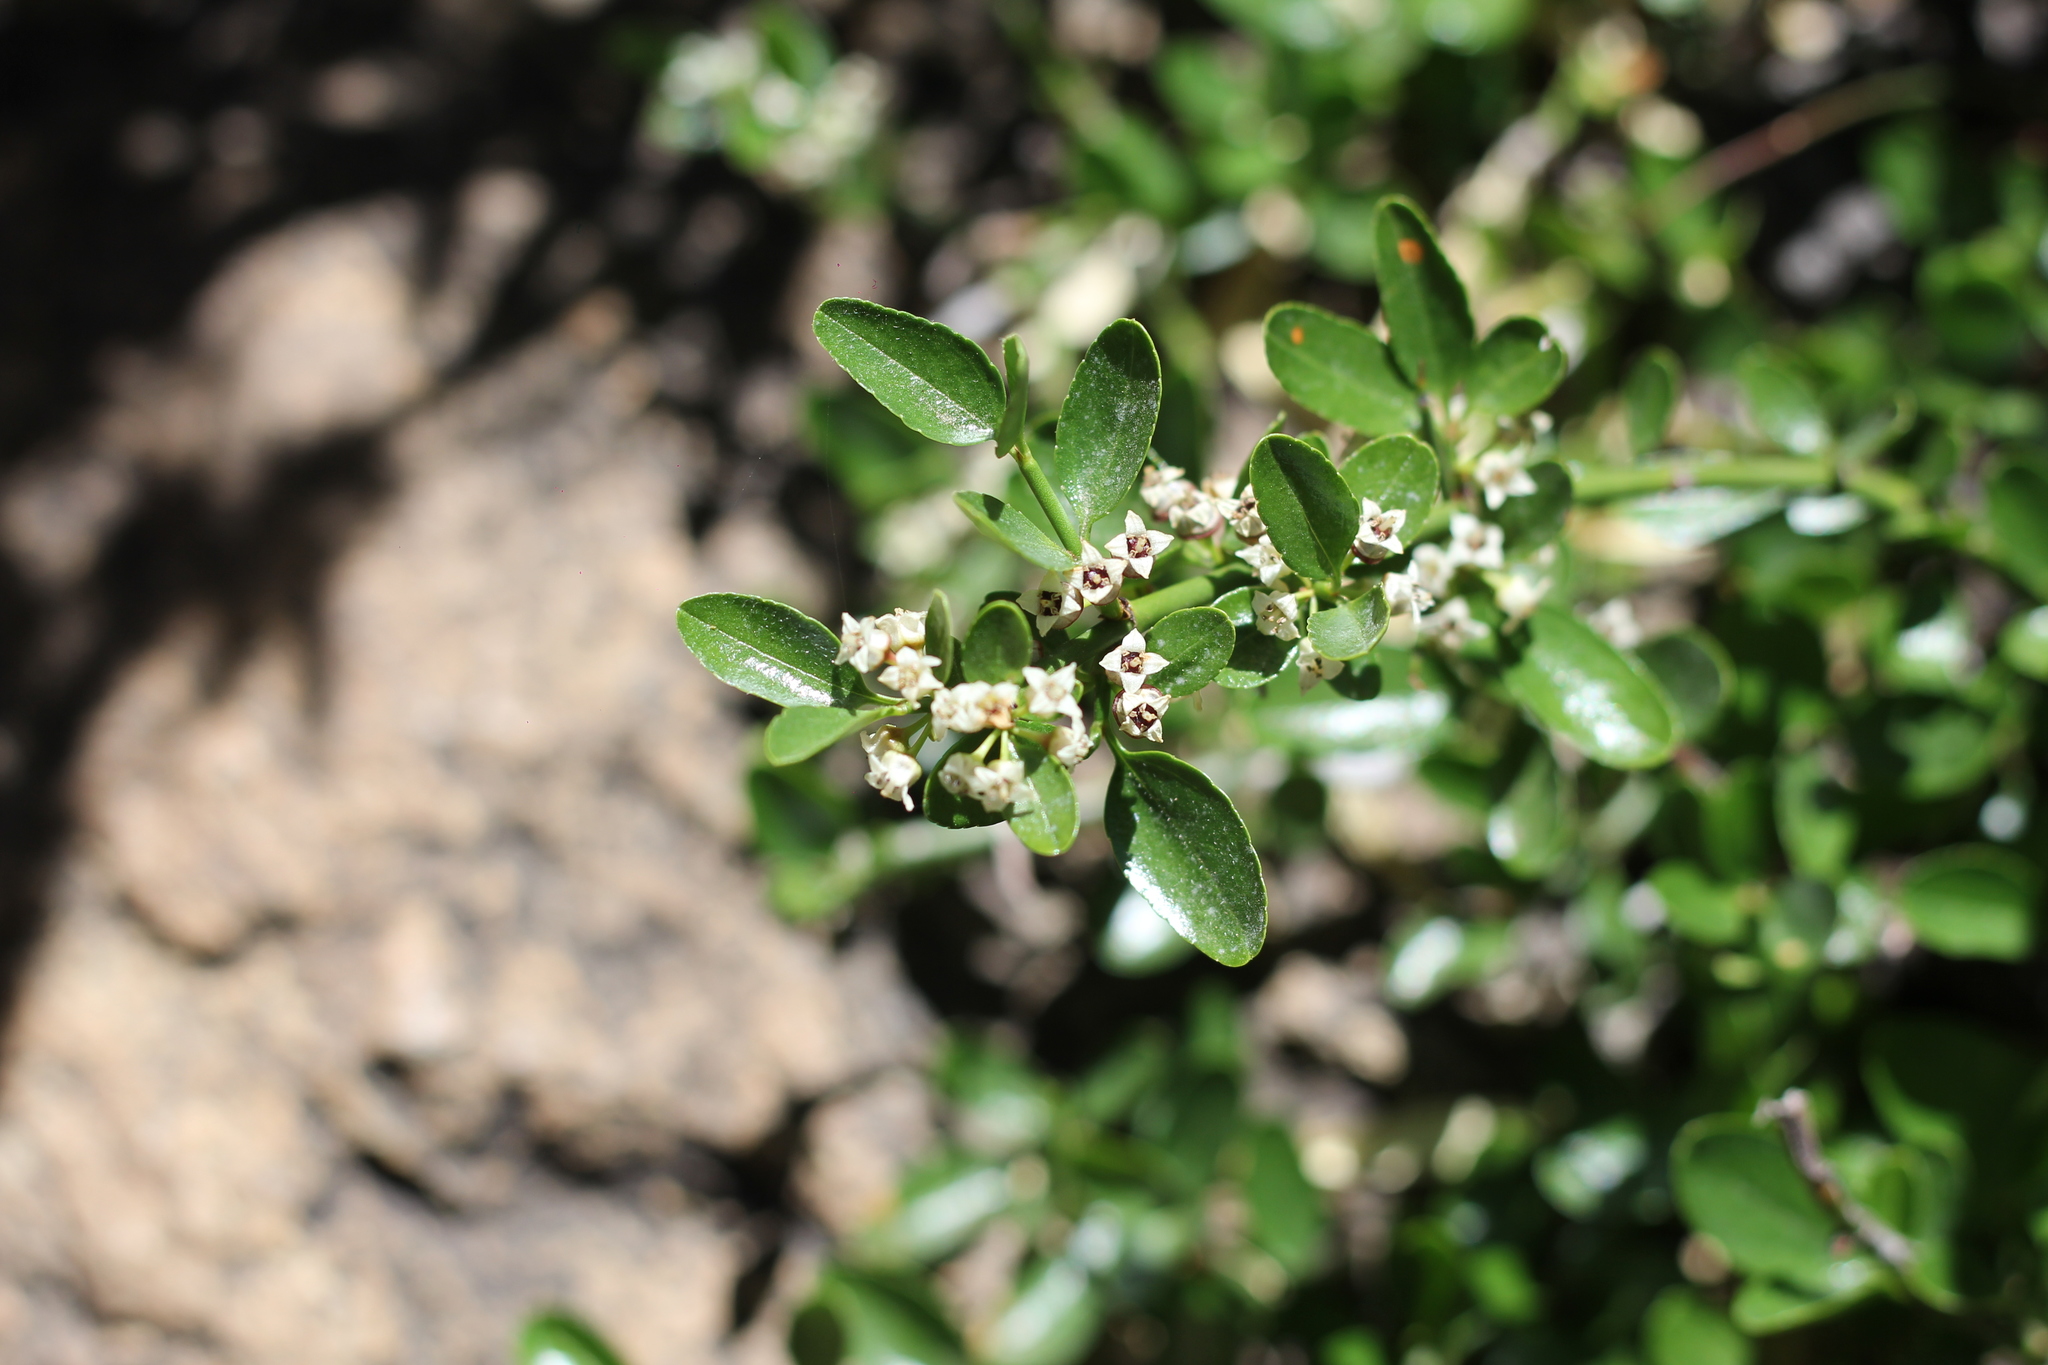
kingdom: Plantae
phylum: Tracheophyta
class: Magnoliopsida
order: Rosales
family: Rhamnaceae
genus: Discaria
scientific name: Discaria chacaye
